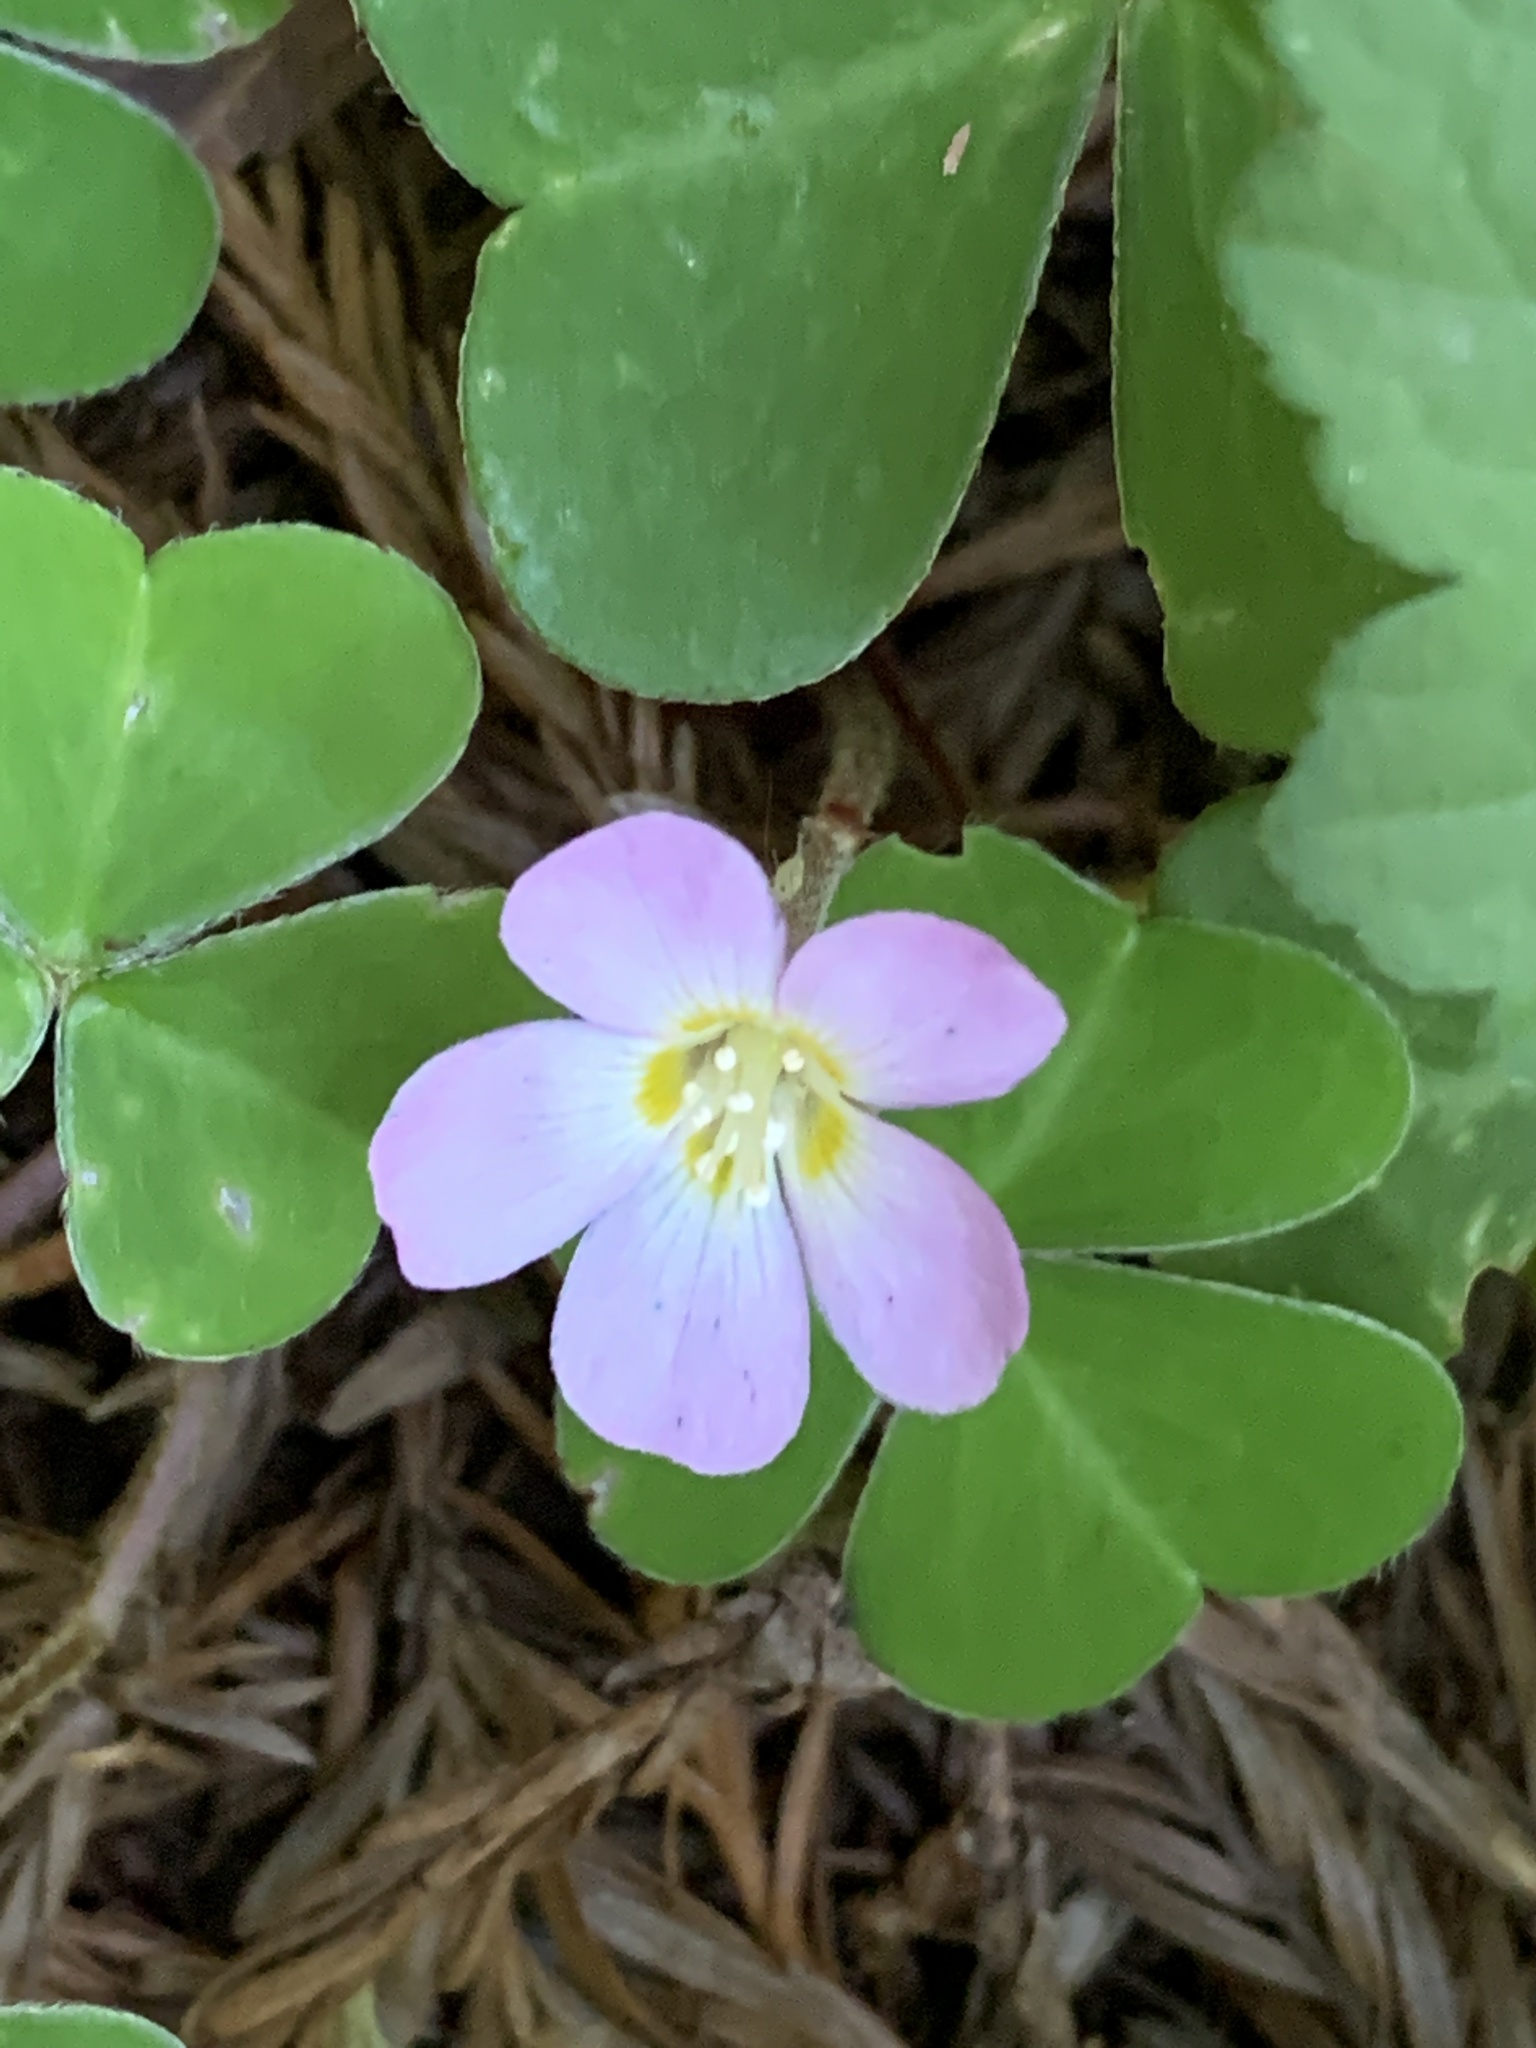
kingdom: Plantae
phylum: Tracheophyta
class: Magnoliopsida
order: Oxalidales
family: Oxalidaceae
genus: Oxalis
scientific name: Oxalis oregana
